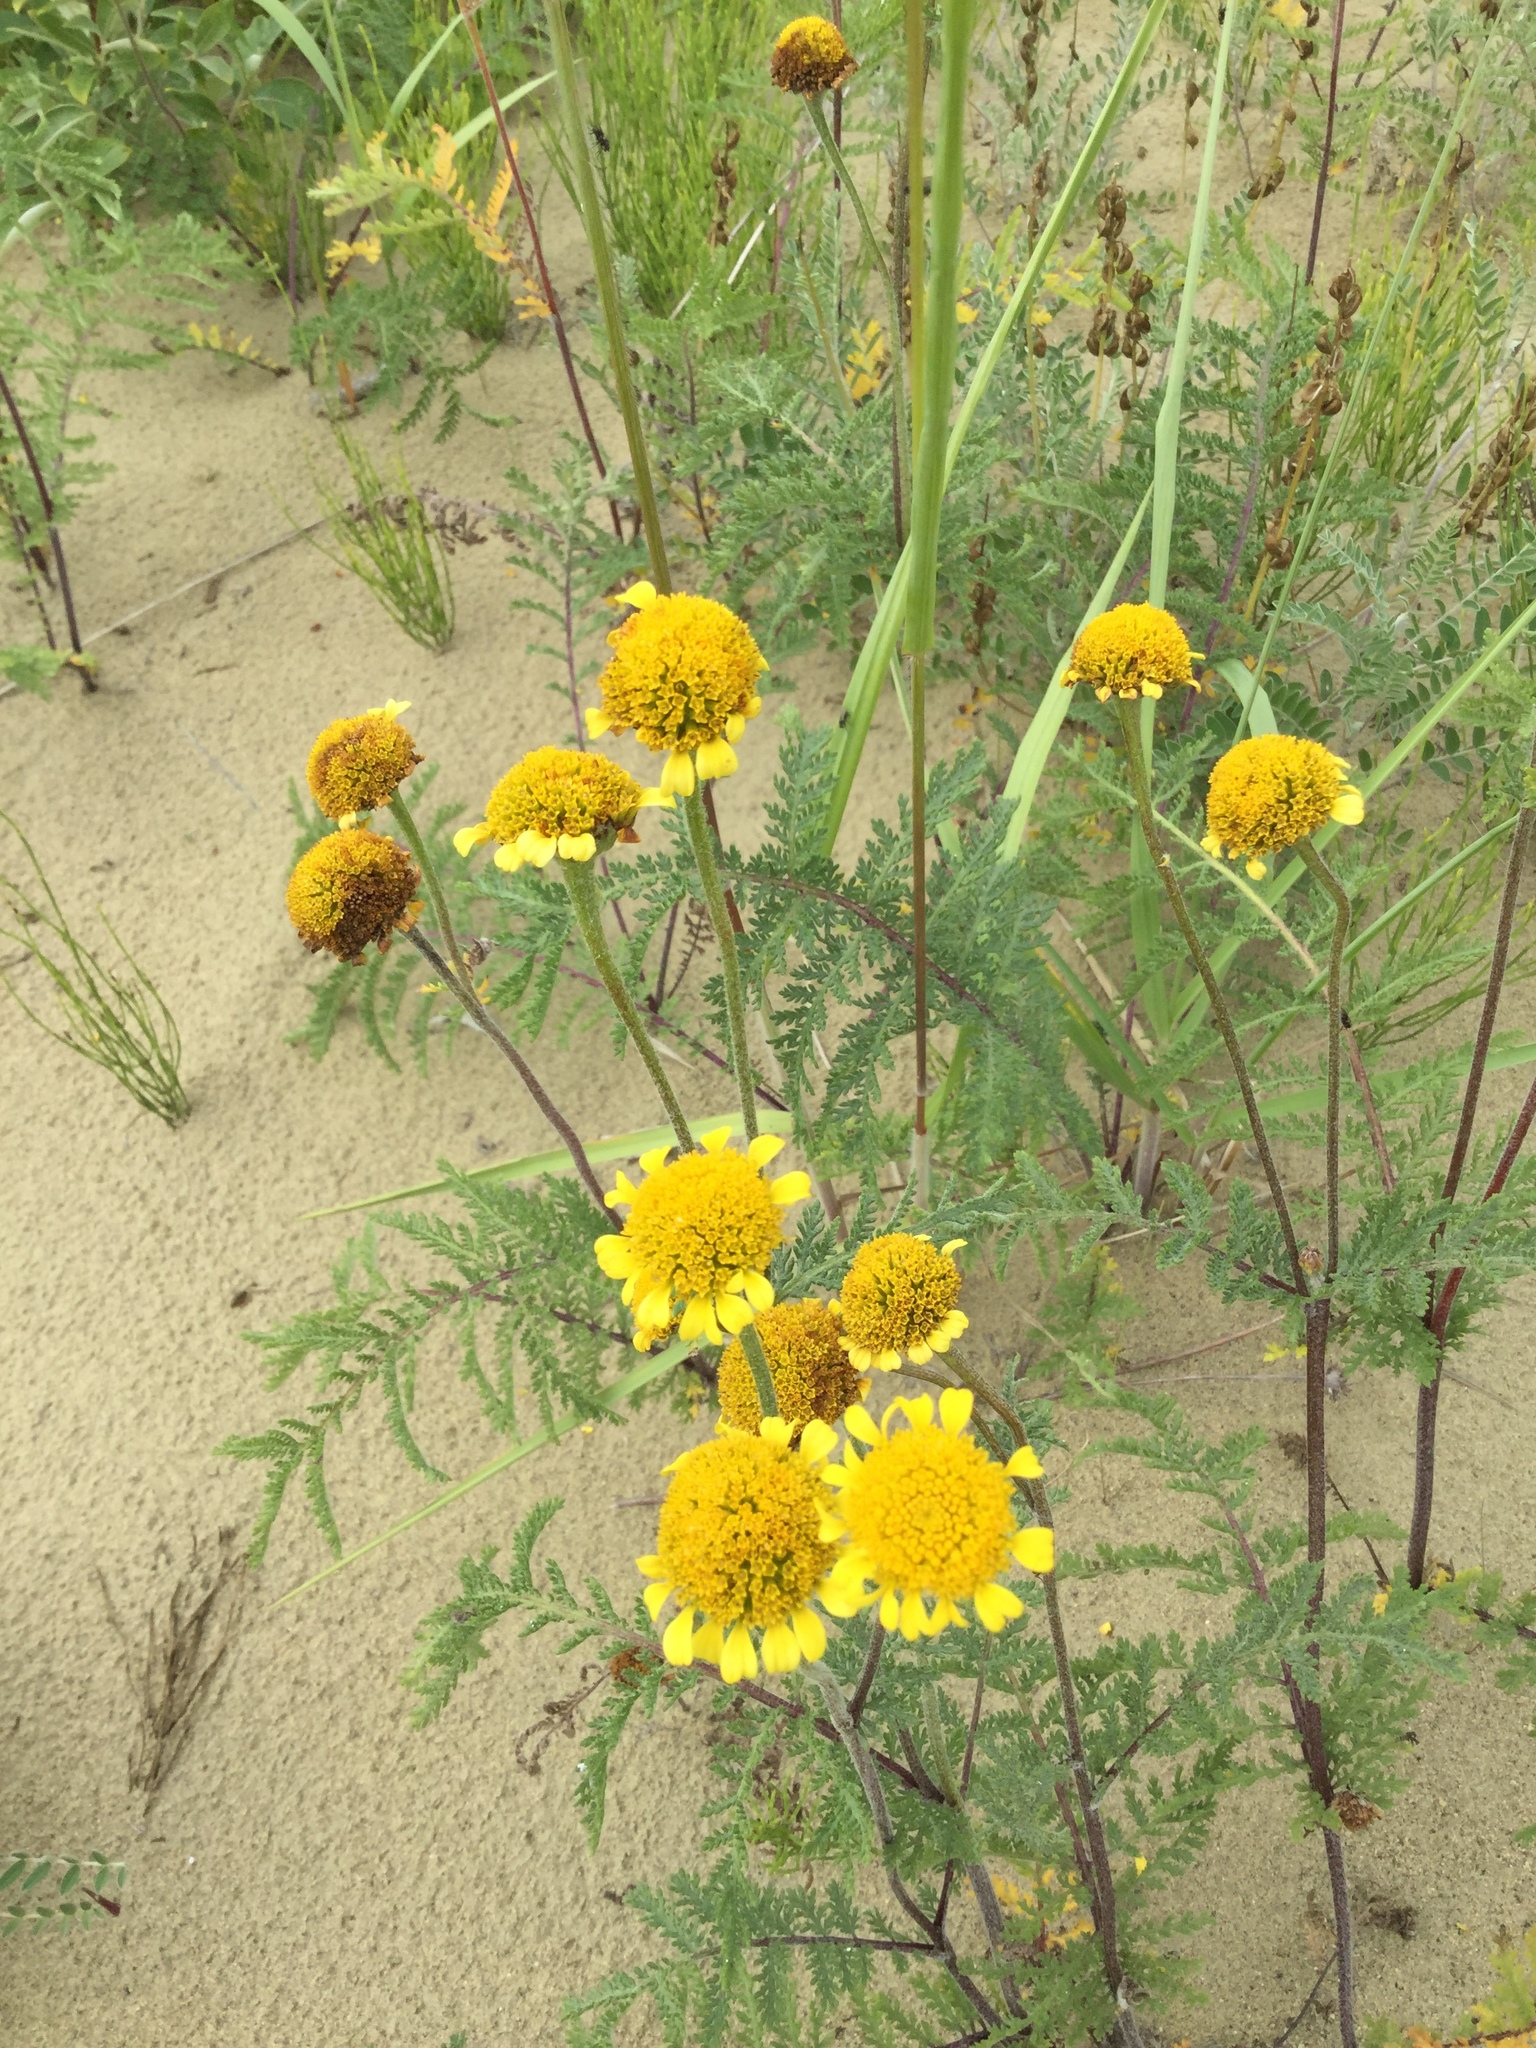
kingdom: Plantae
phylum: Tracheophyta
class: Magnoliopsida
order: Asterales
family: Asteraceae
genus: Tanacetum
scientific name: Tanacetum bipinnatum
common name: Dwarf tansy
